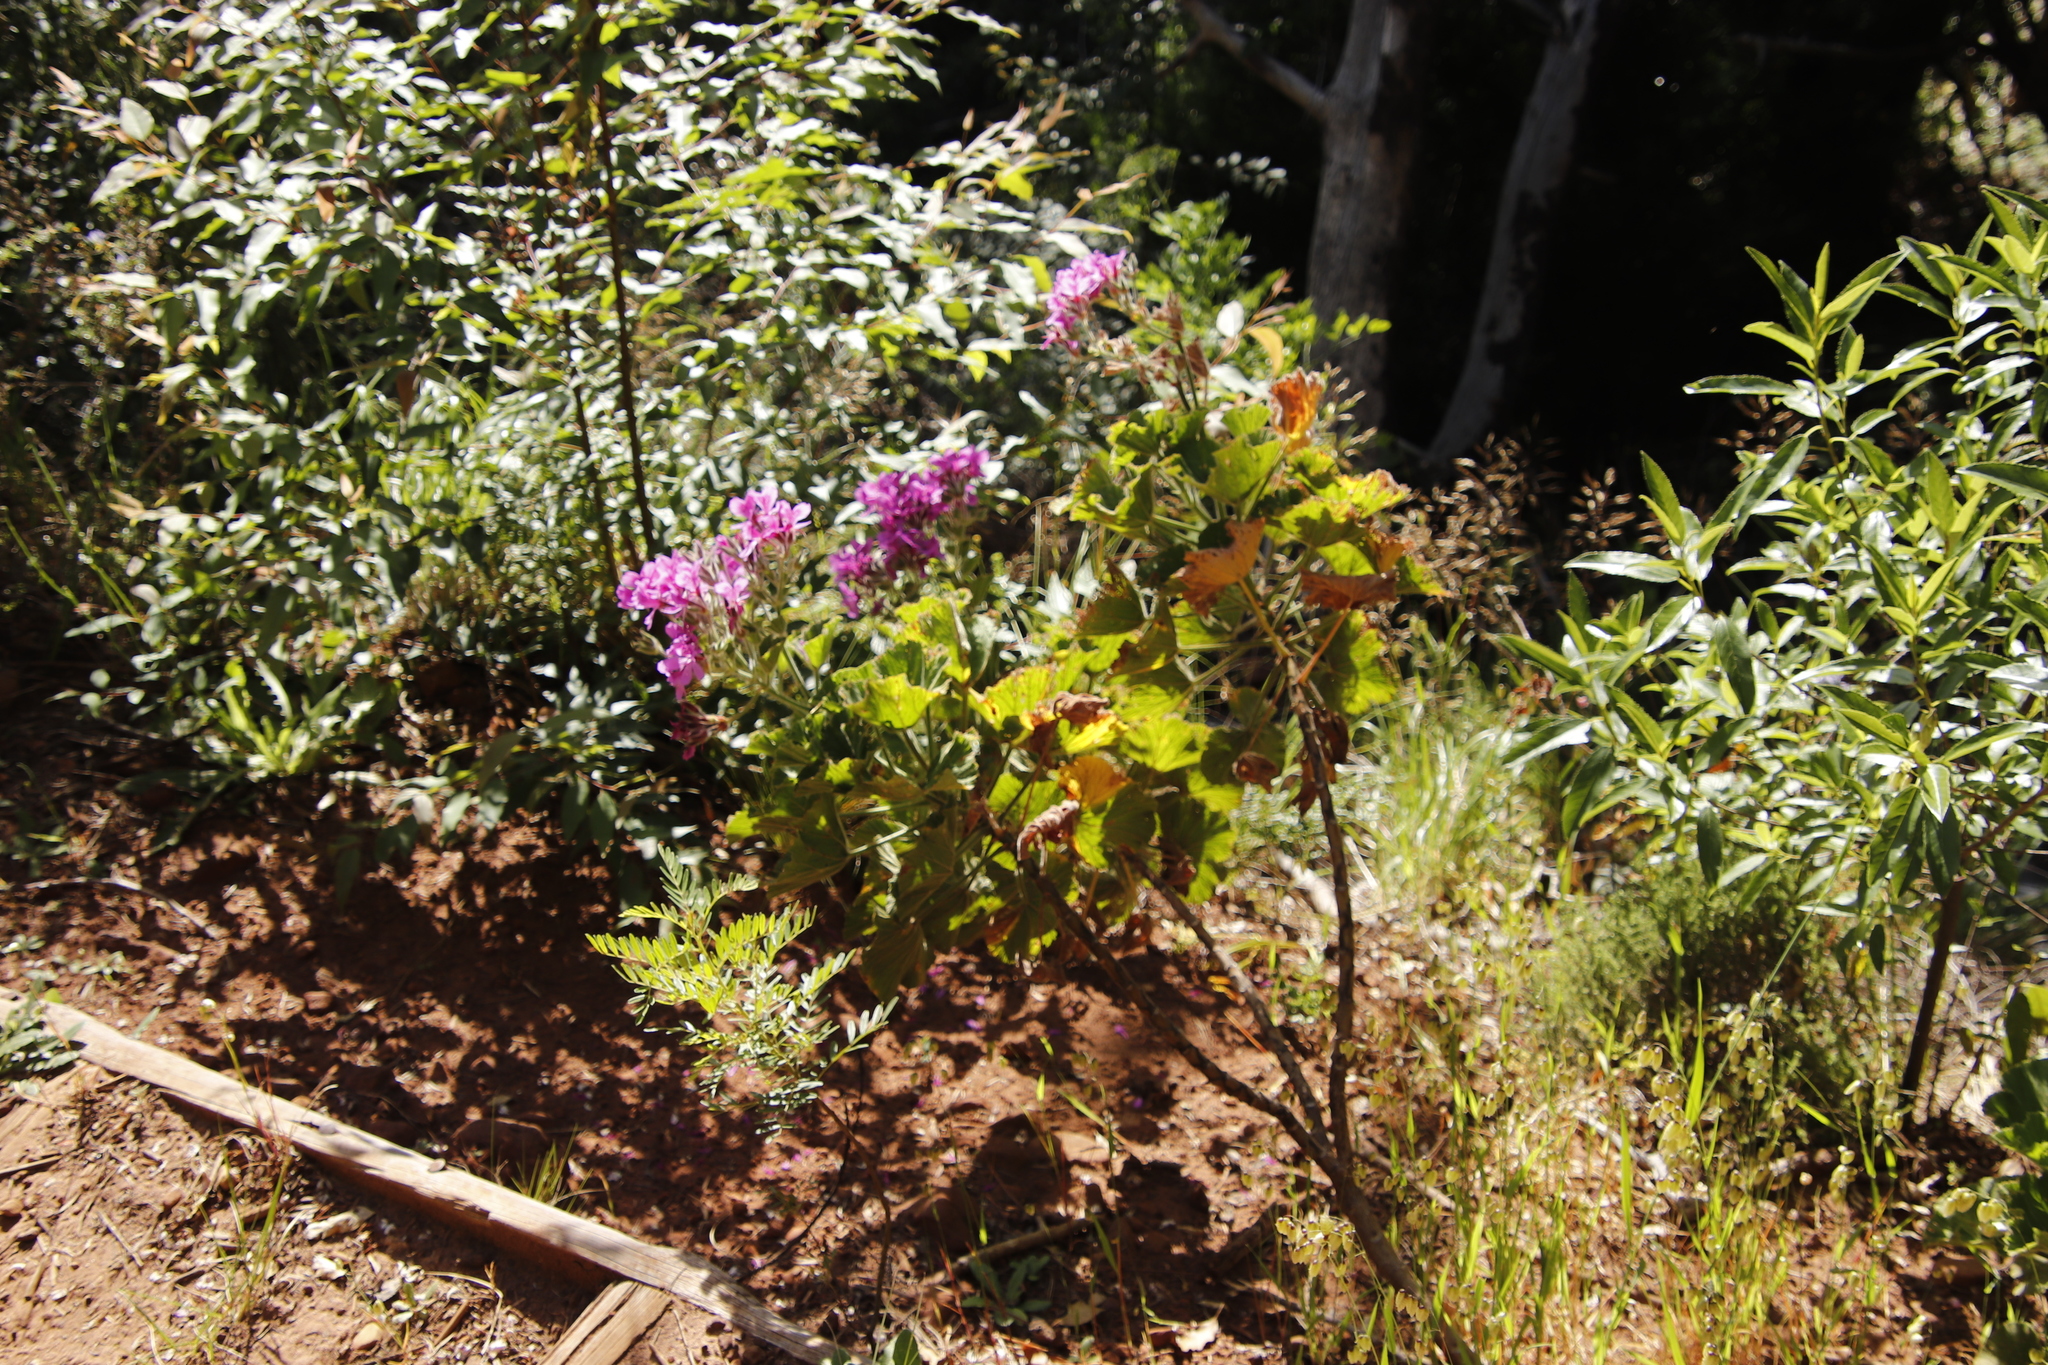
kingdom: Plantae
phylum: Tracheophyta
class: Magnoliopsida
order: Geraniales
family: Geraniaceae
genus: Pelargonium
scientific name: Pelargonium cucullatum
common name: Tree pelargonium
